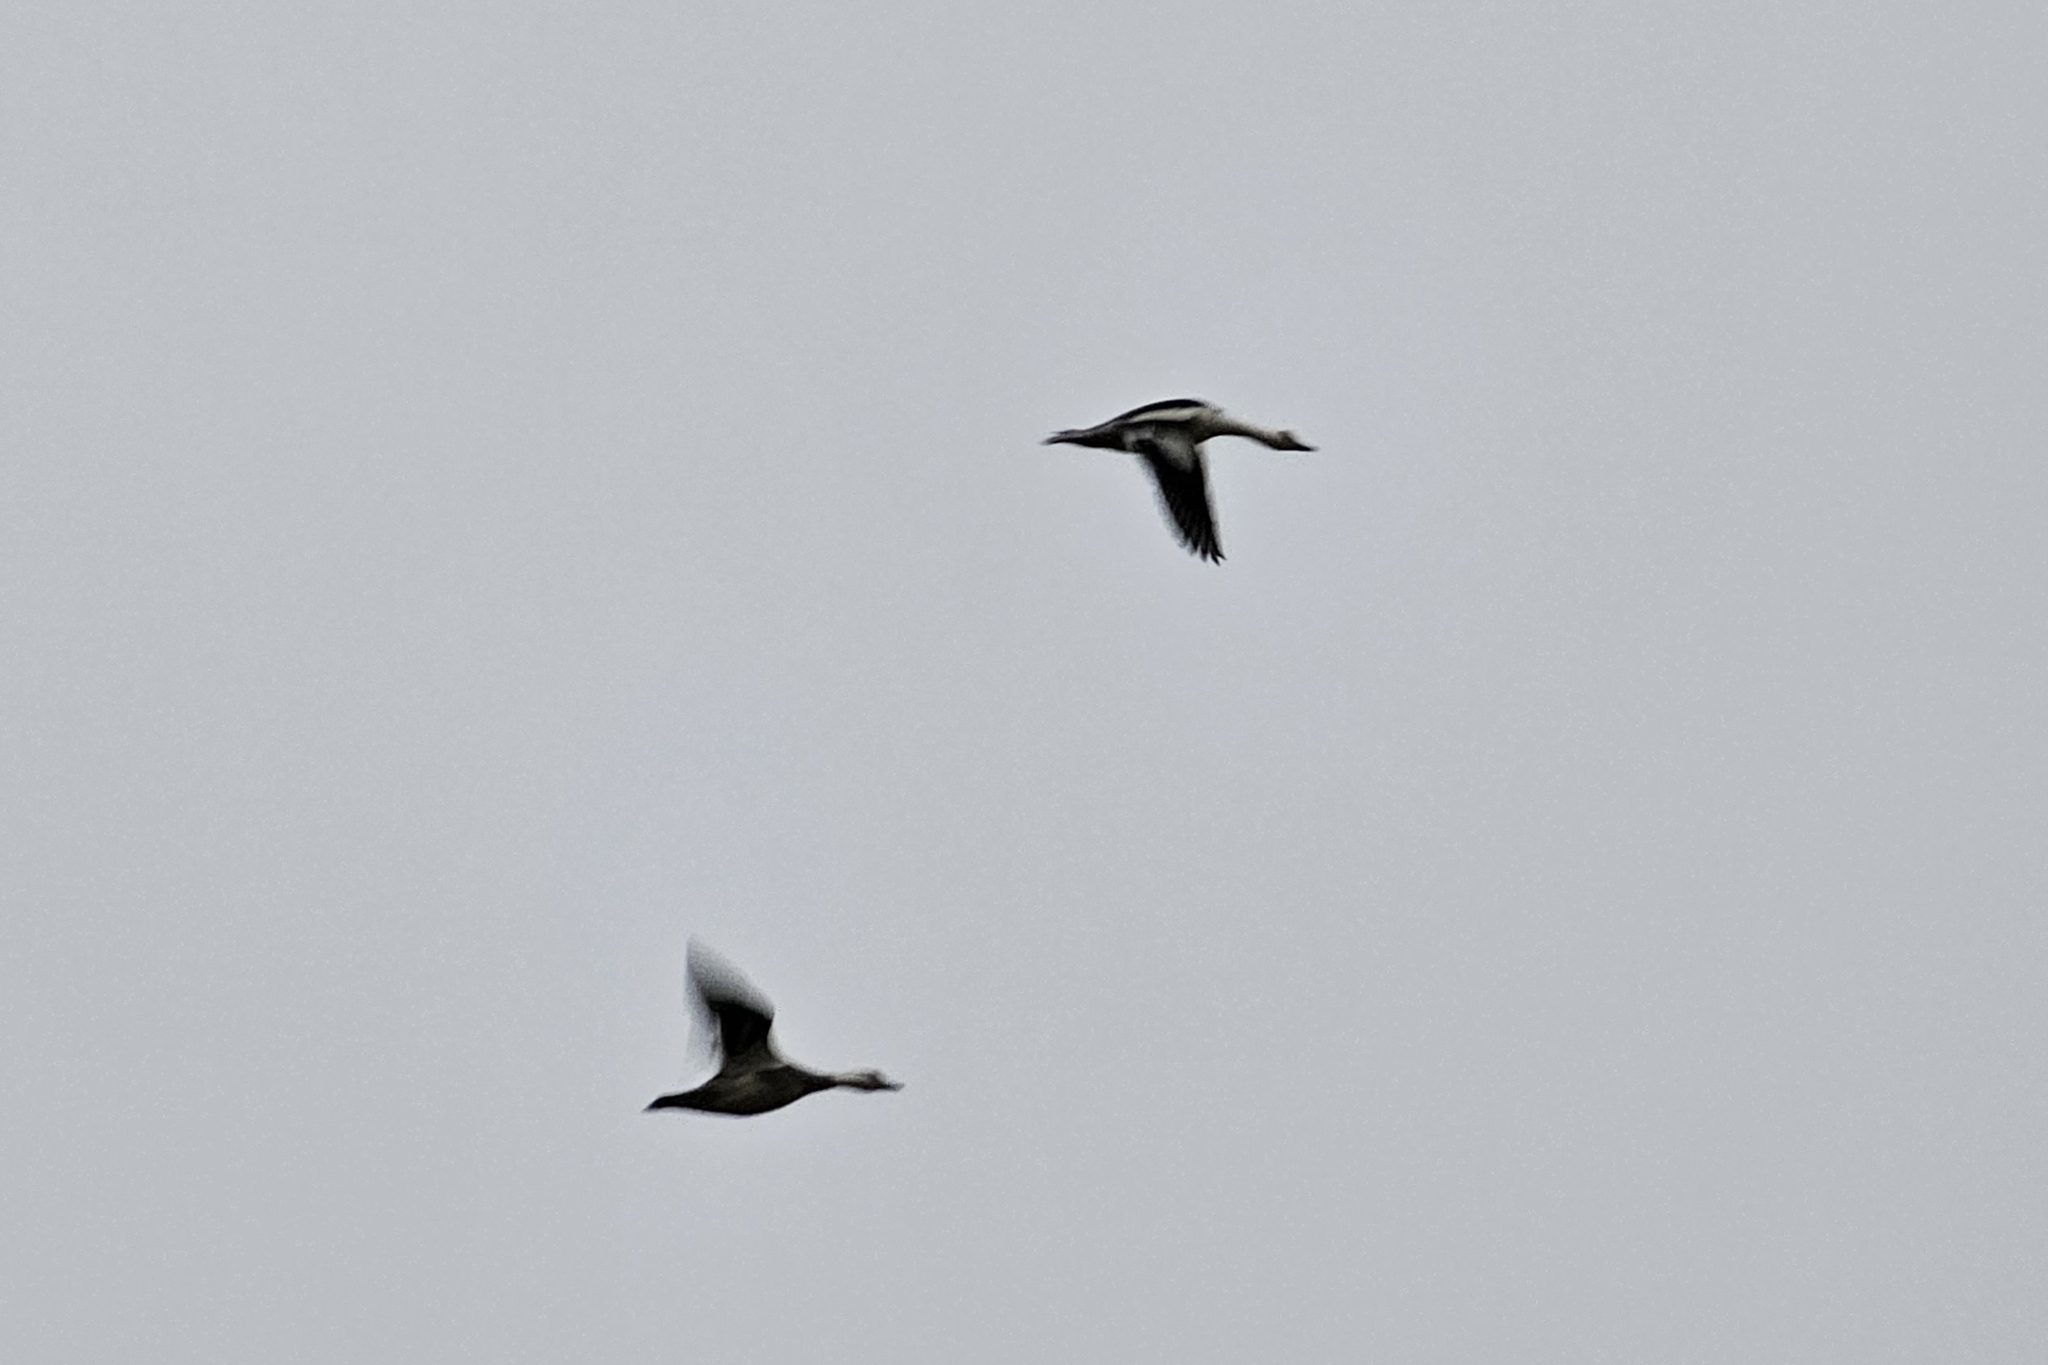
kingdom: Animalia
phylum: Chordata
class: Aves
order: Anseriformes
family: Anatidae
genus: Mergellus
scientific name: Mergellus albellus
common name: Smew
